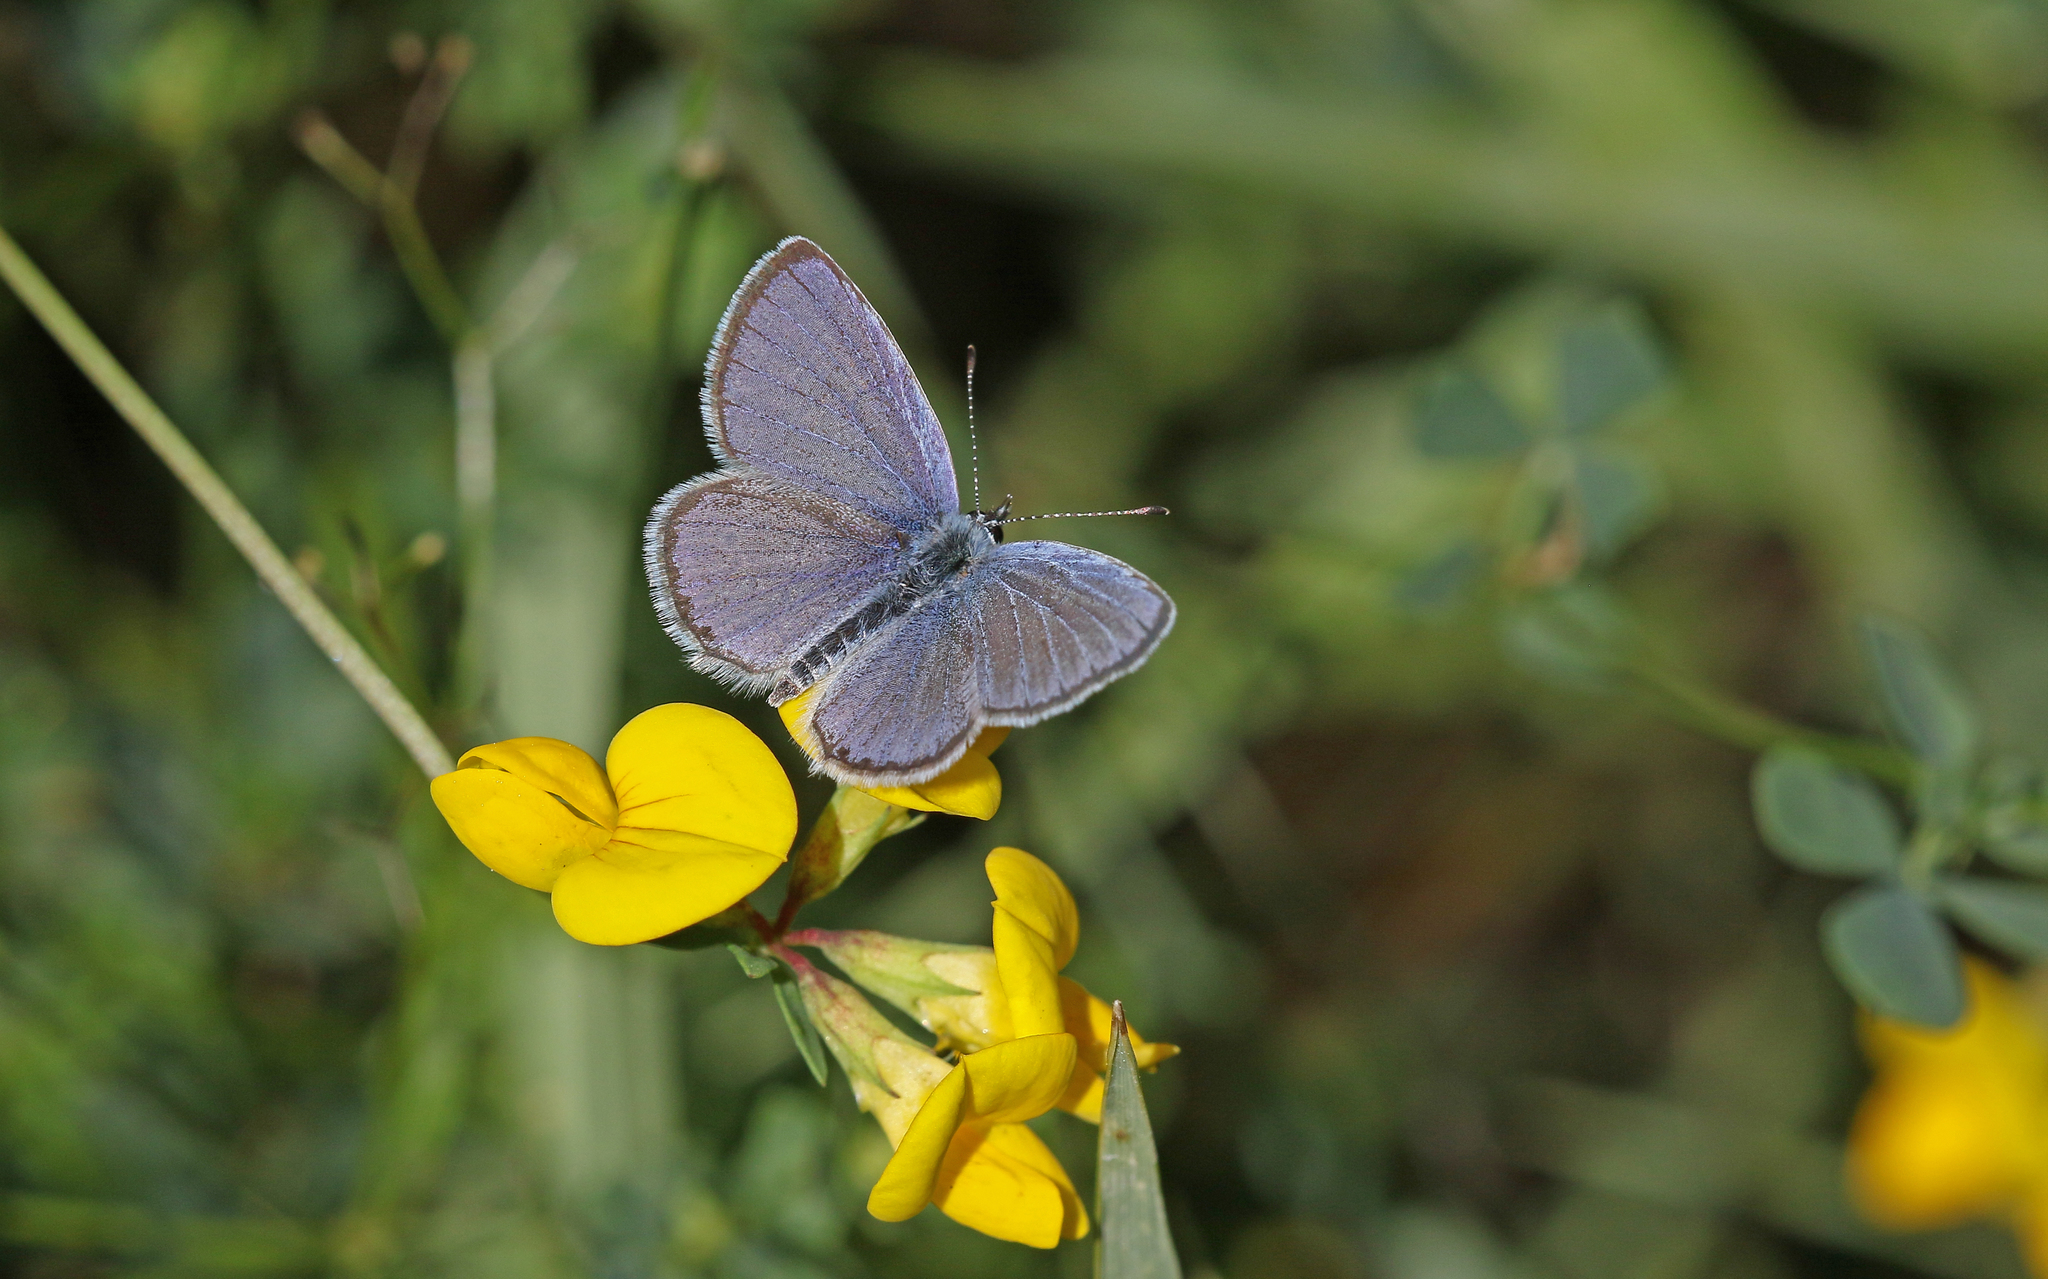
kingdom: Animalia
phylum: Arthropoda
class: Insecta
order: Lepidoptera
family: Lycaenidae
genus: Elkalyce
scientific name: Elkalyce alcetas
